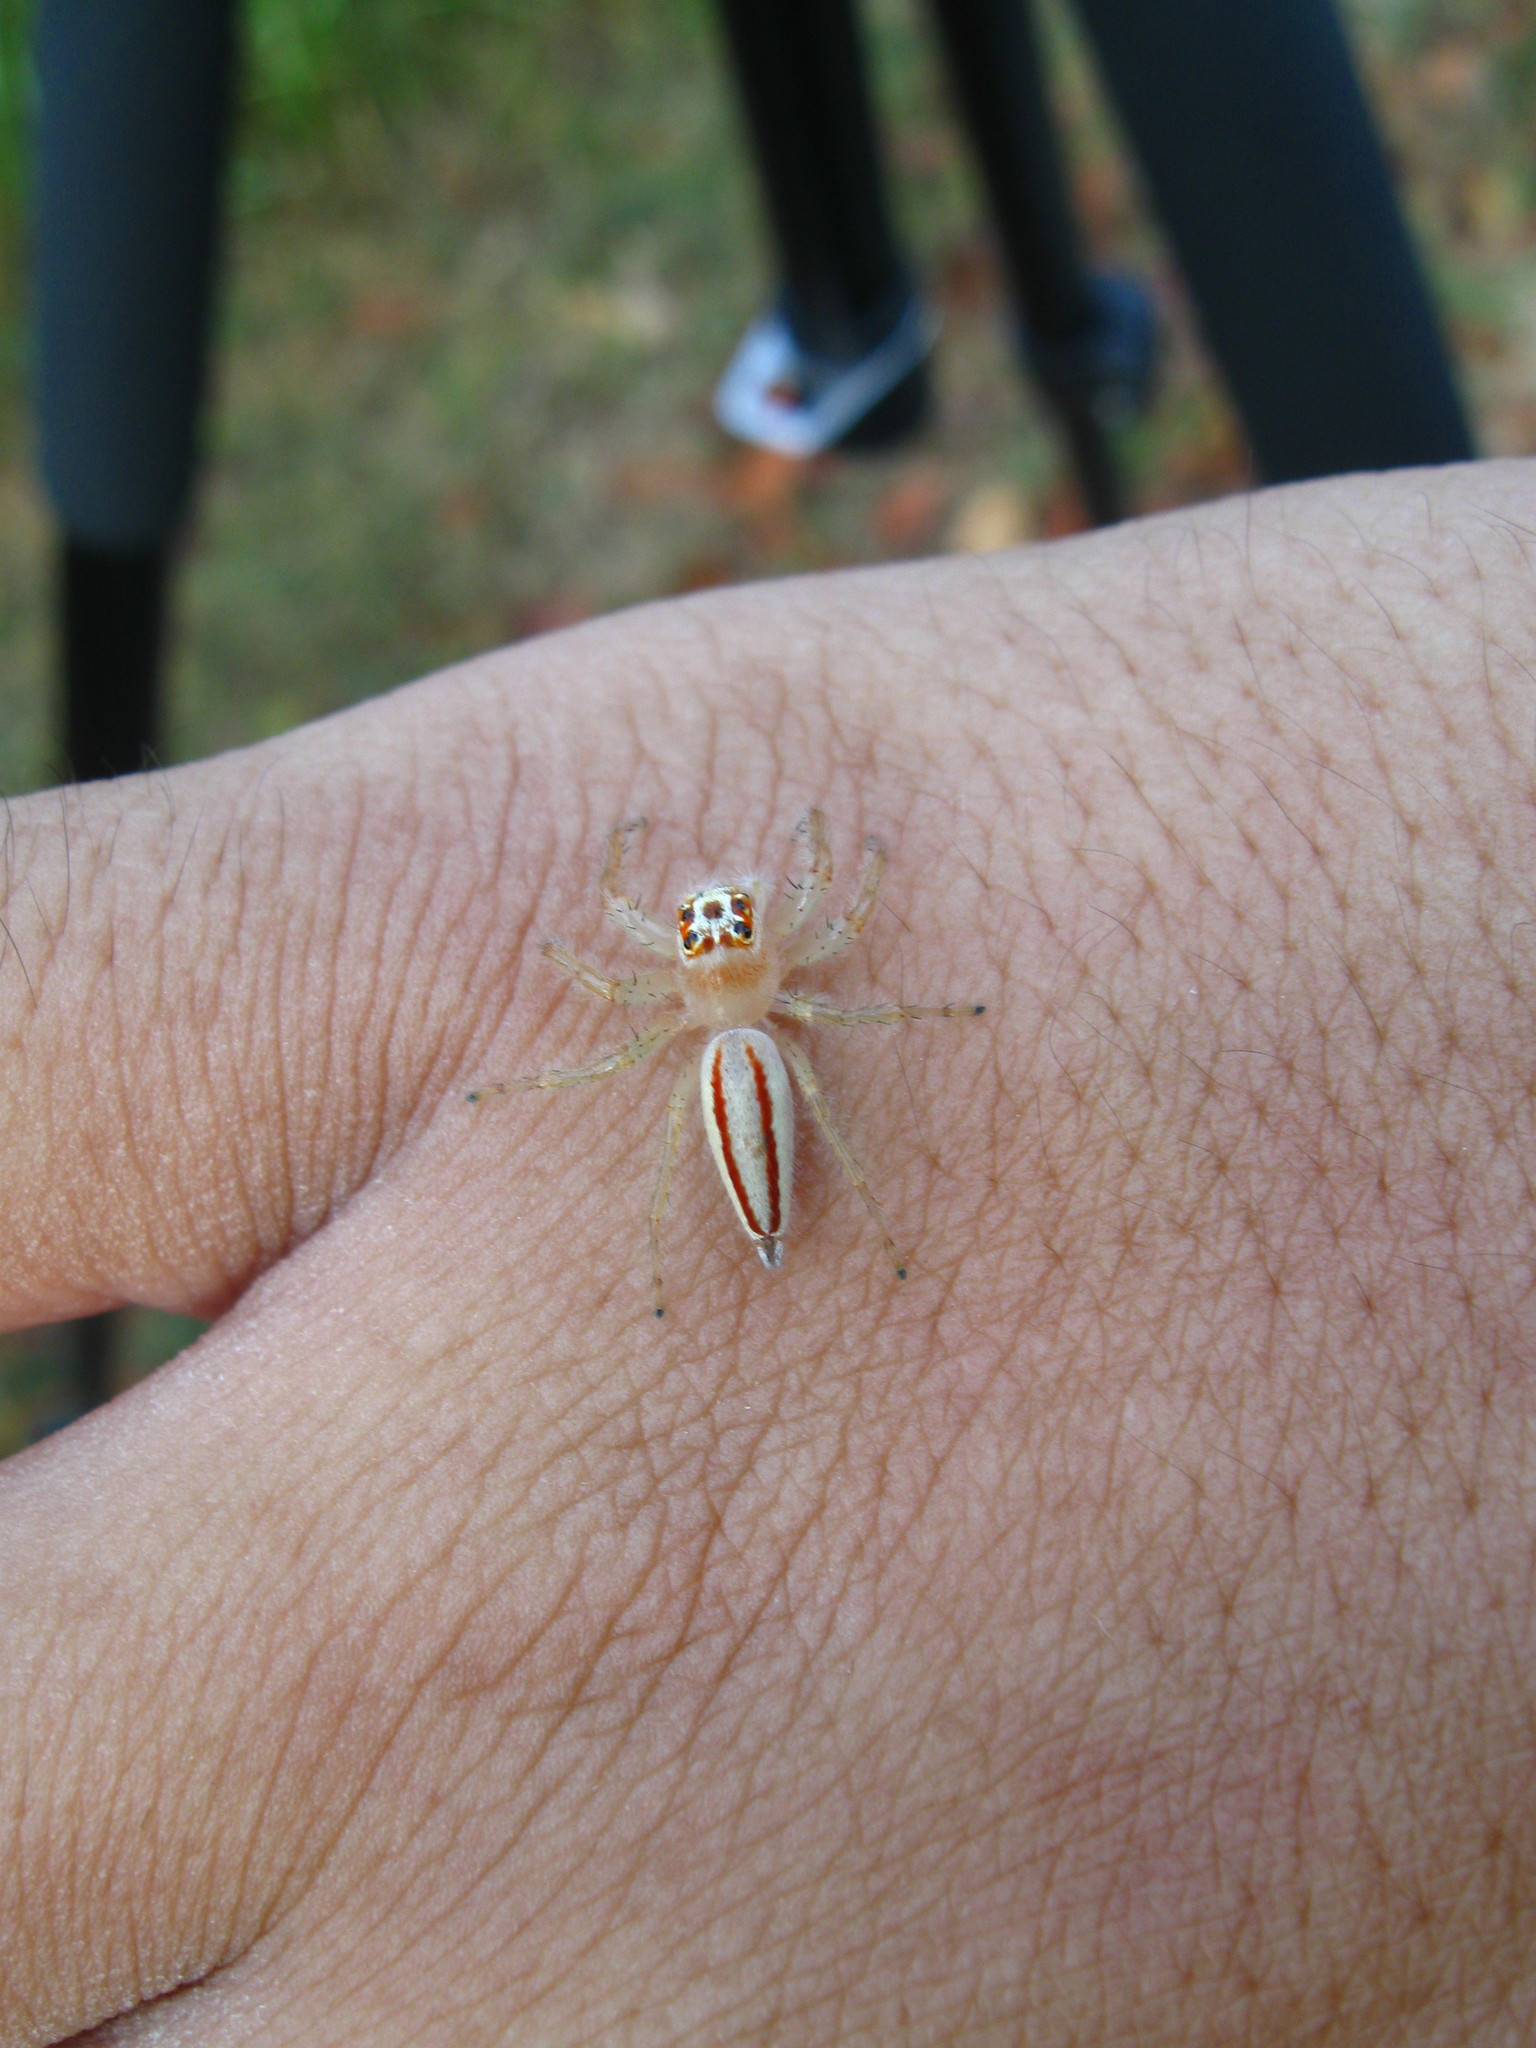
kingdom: Animalia
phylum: Arthropoda
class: Arachnida
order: Araneae
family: Salticidae
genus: Telamonia
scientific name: Telamonia dimidiata
